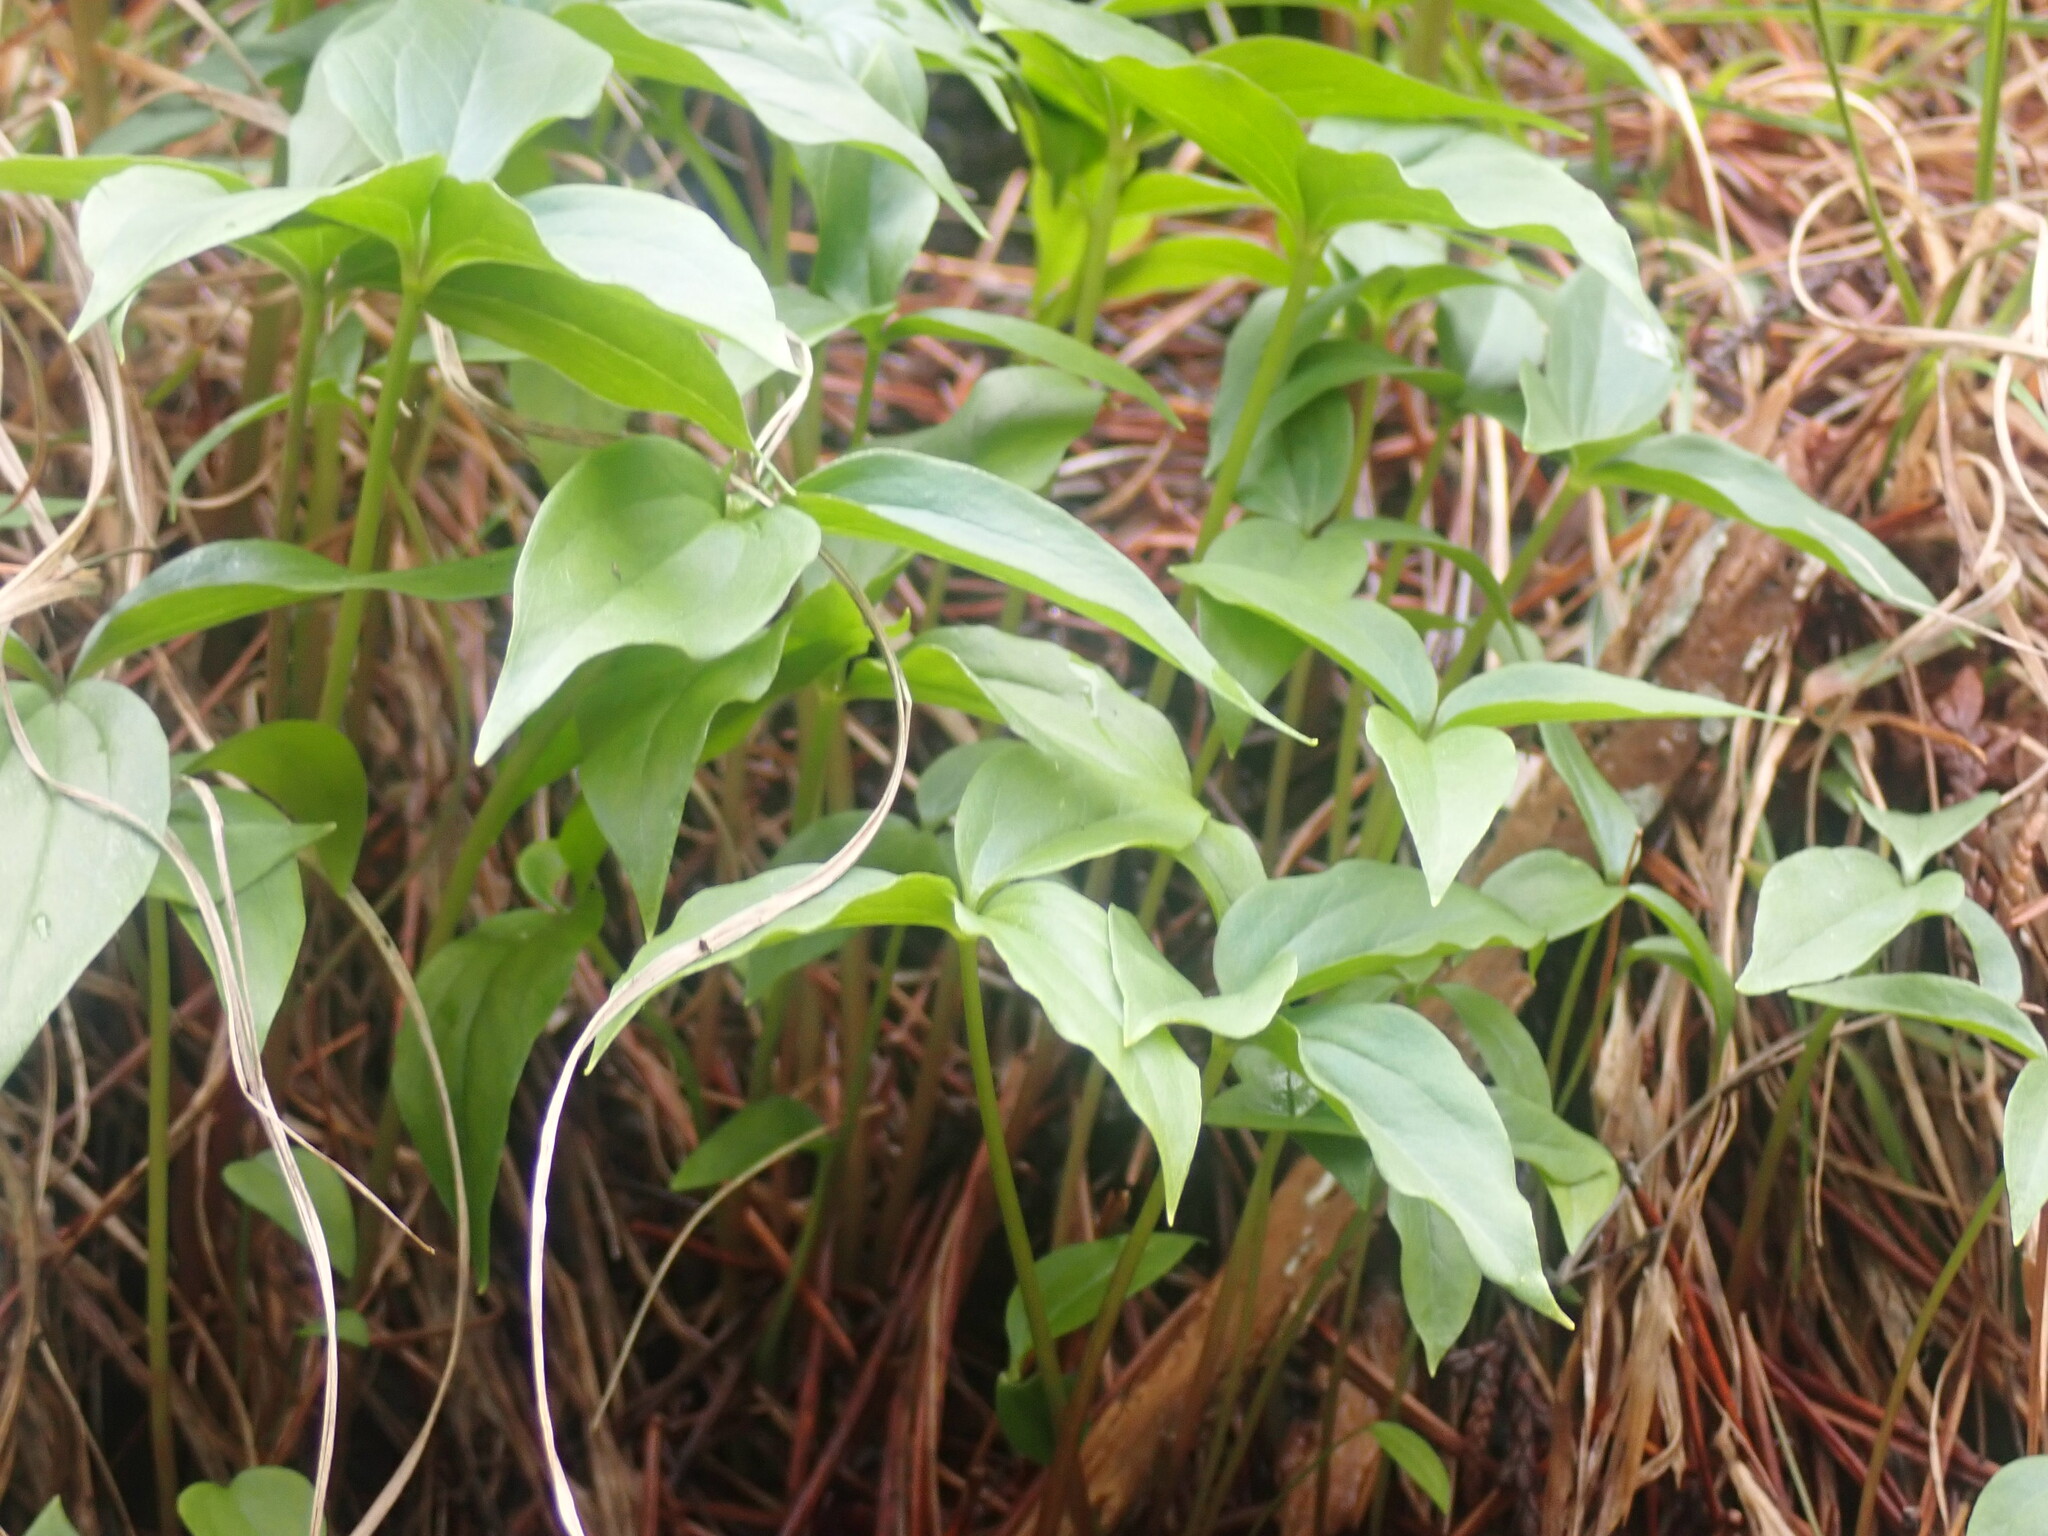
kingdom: Plantae
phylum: Tracheophyta
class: Liliopsida
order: Liliales
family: Melanthiaceae
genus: Trillium
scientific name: Trillium hibbersonii
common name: Hibberson's trillium
